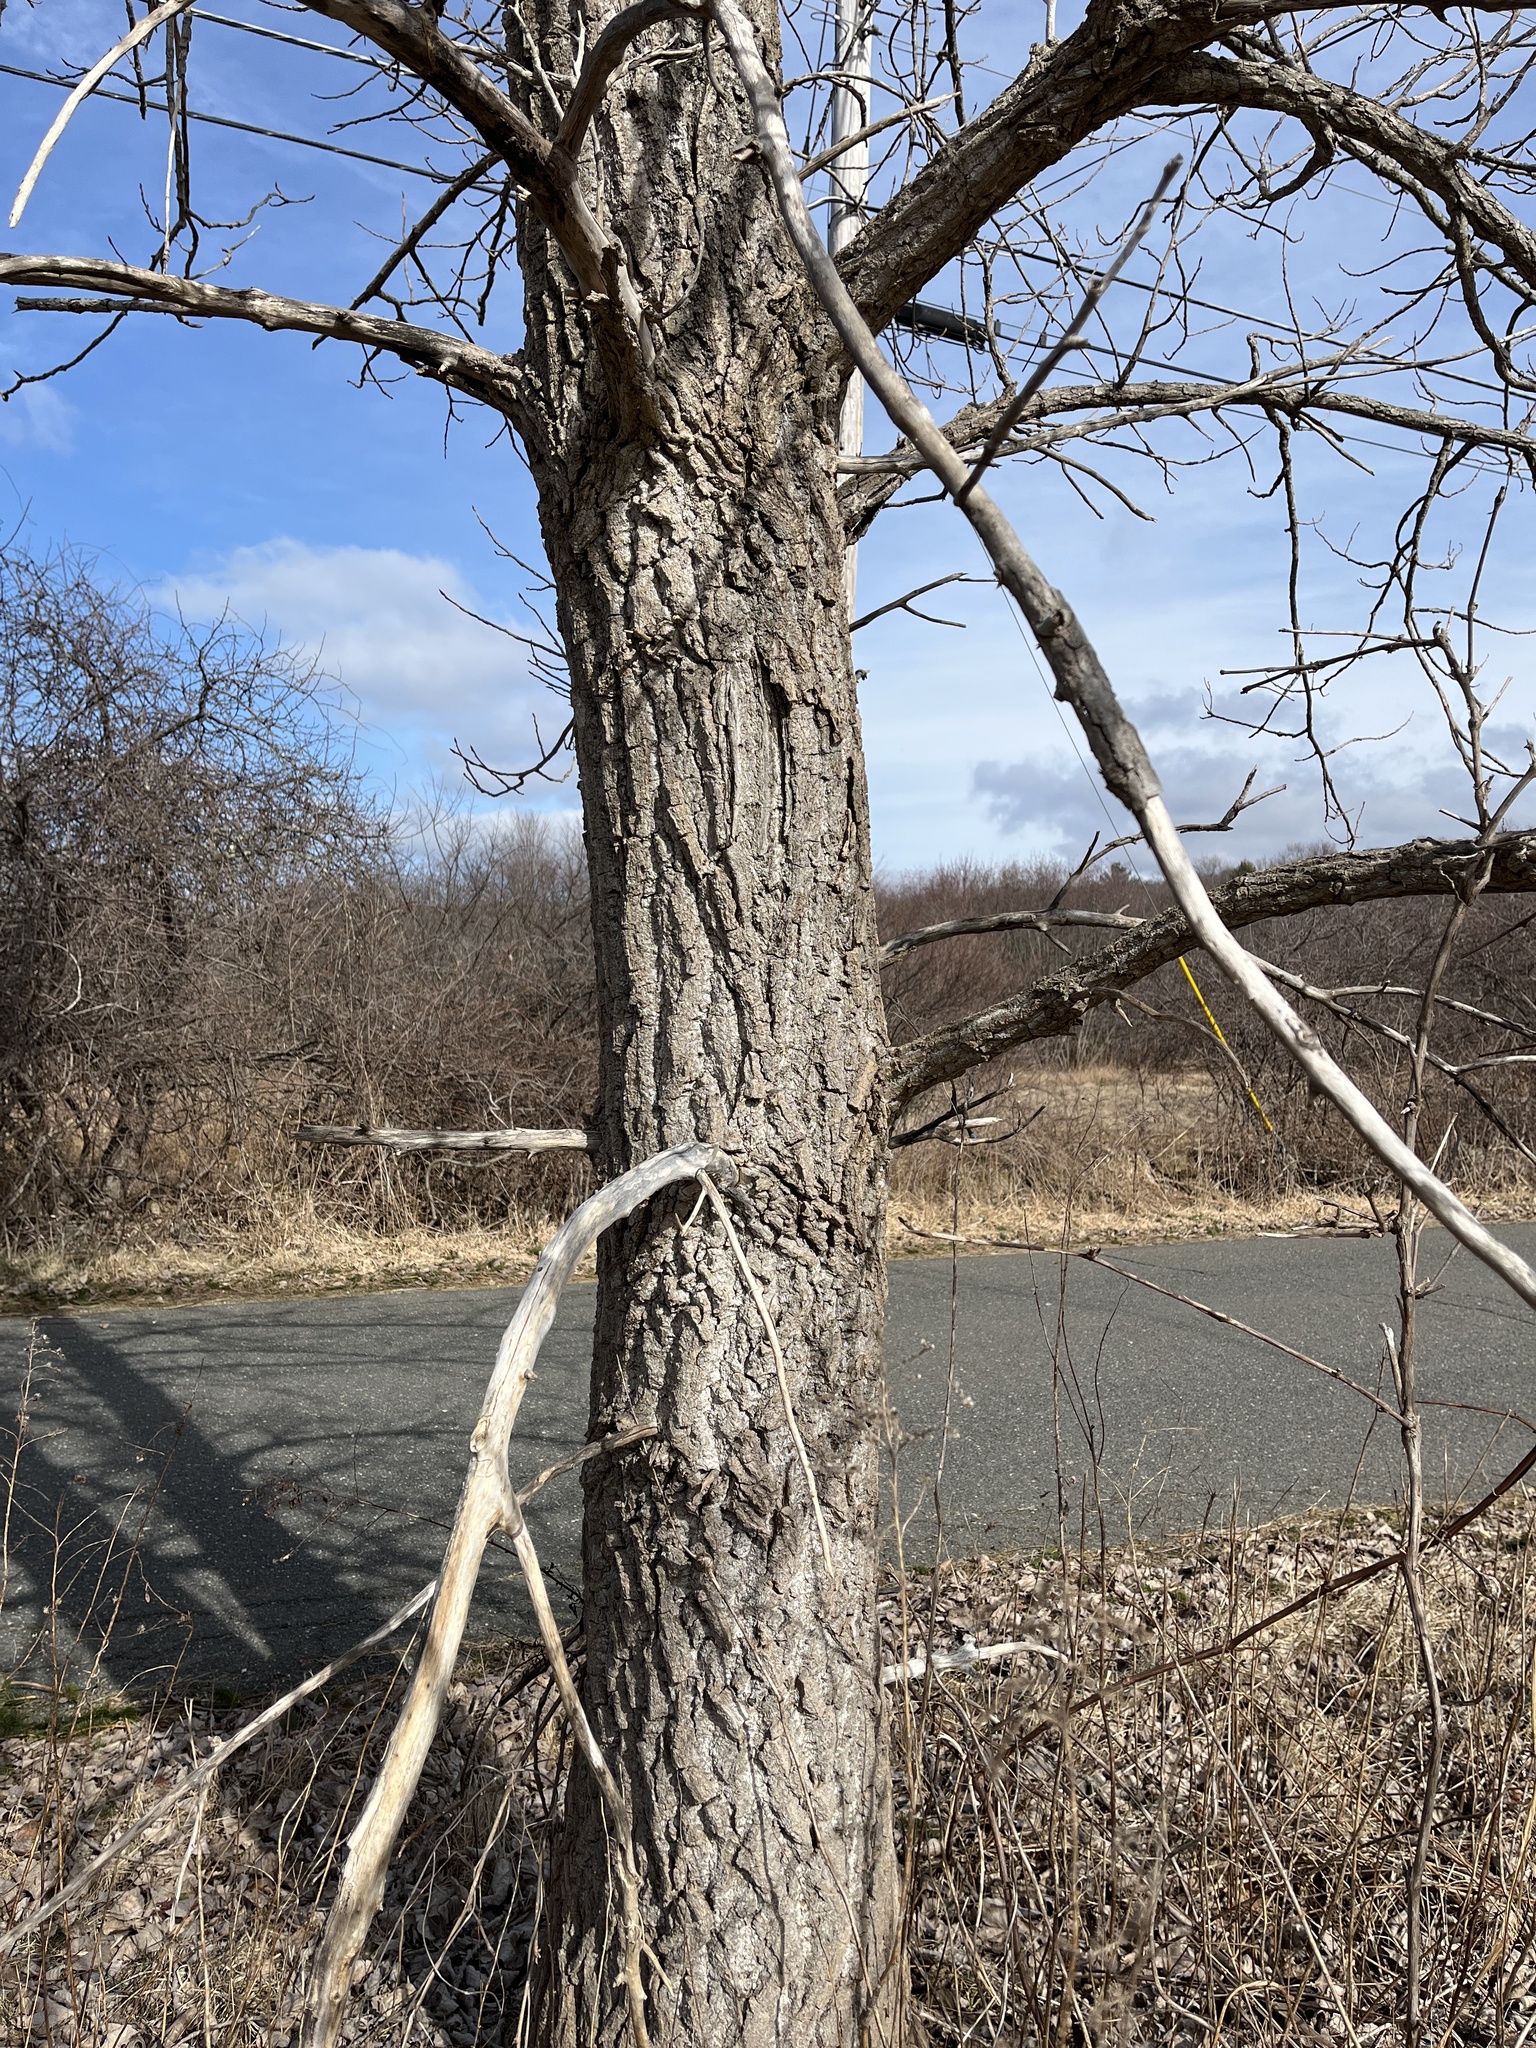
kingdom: Plantae
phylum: Tracheophyta
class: Magnoliopsida
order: Malpighiales
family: Salicaceae
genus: Populus
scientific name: Populus deltoides
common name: Eastern cottonwood
